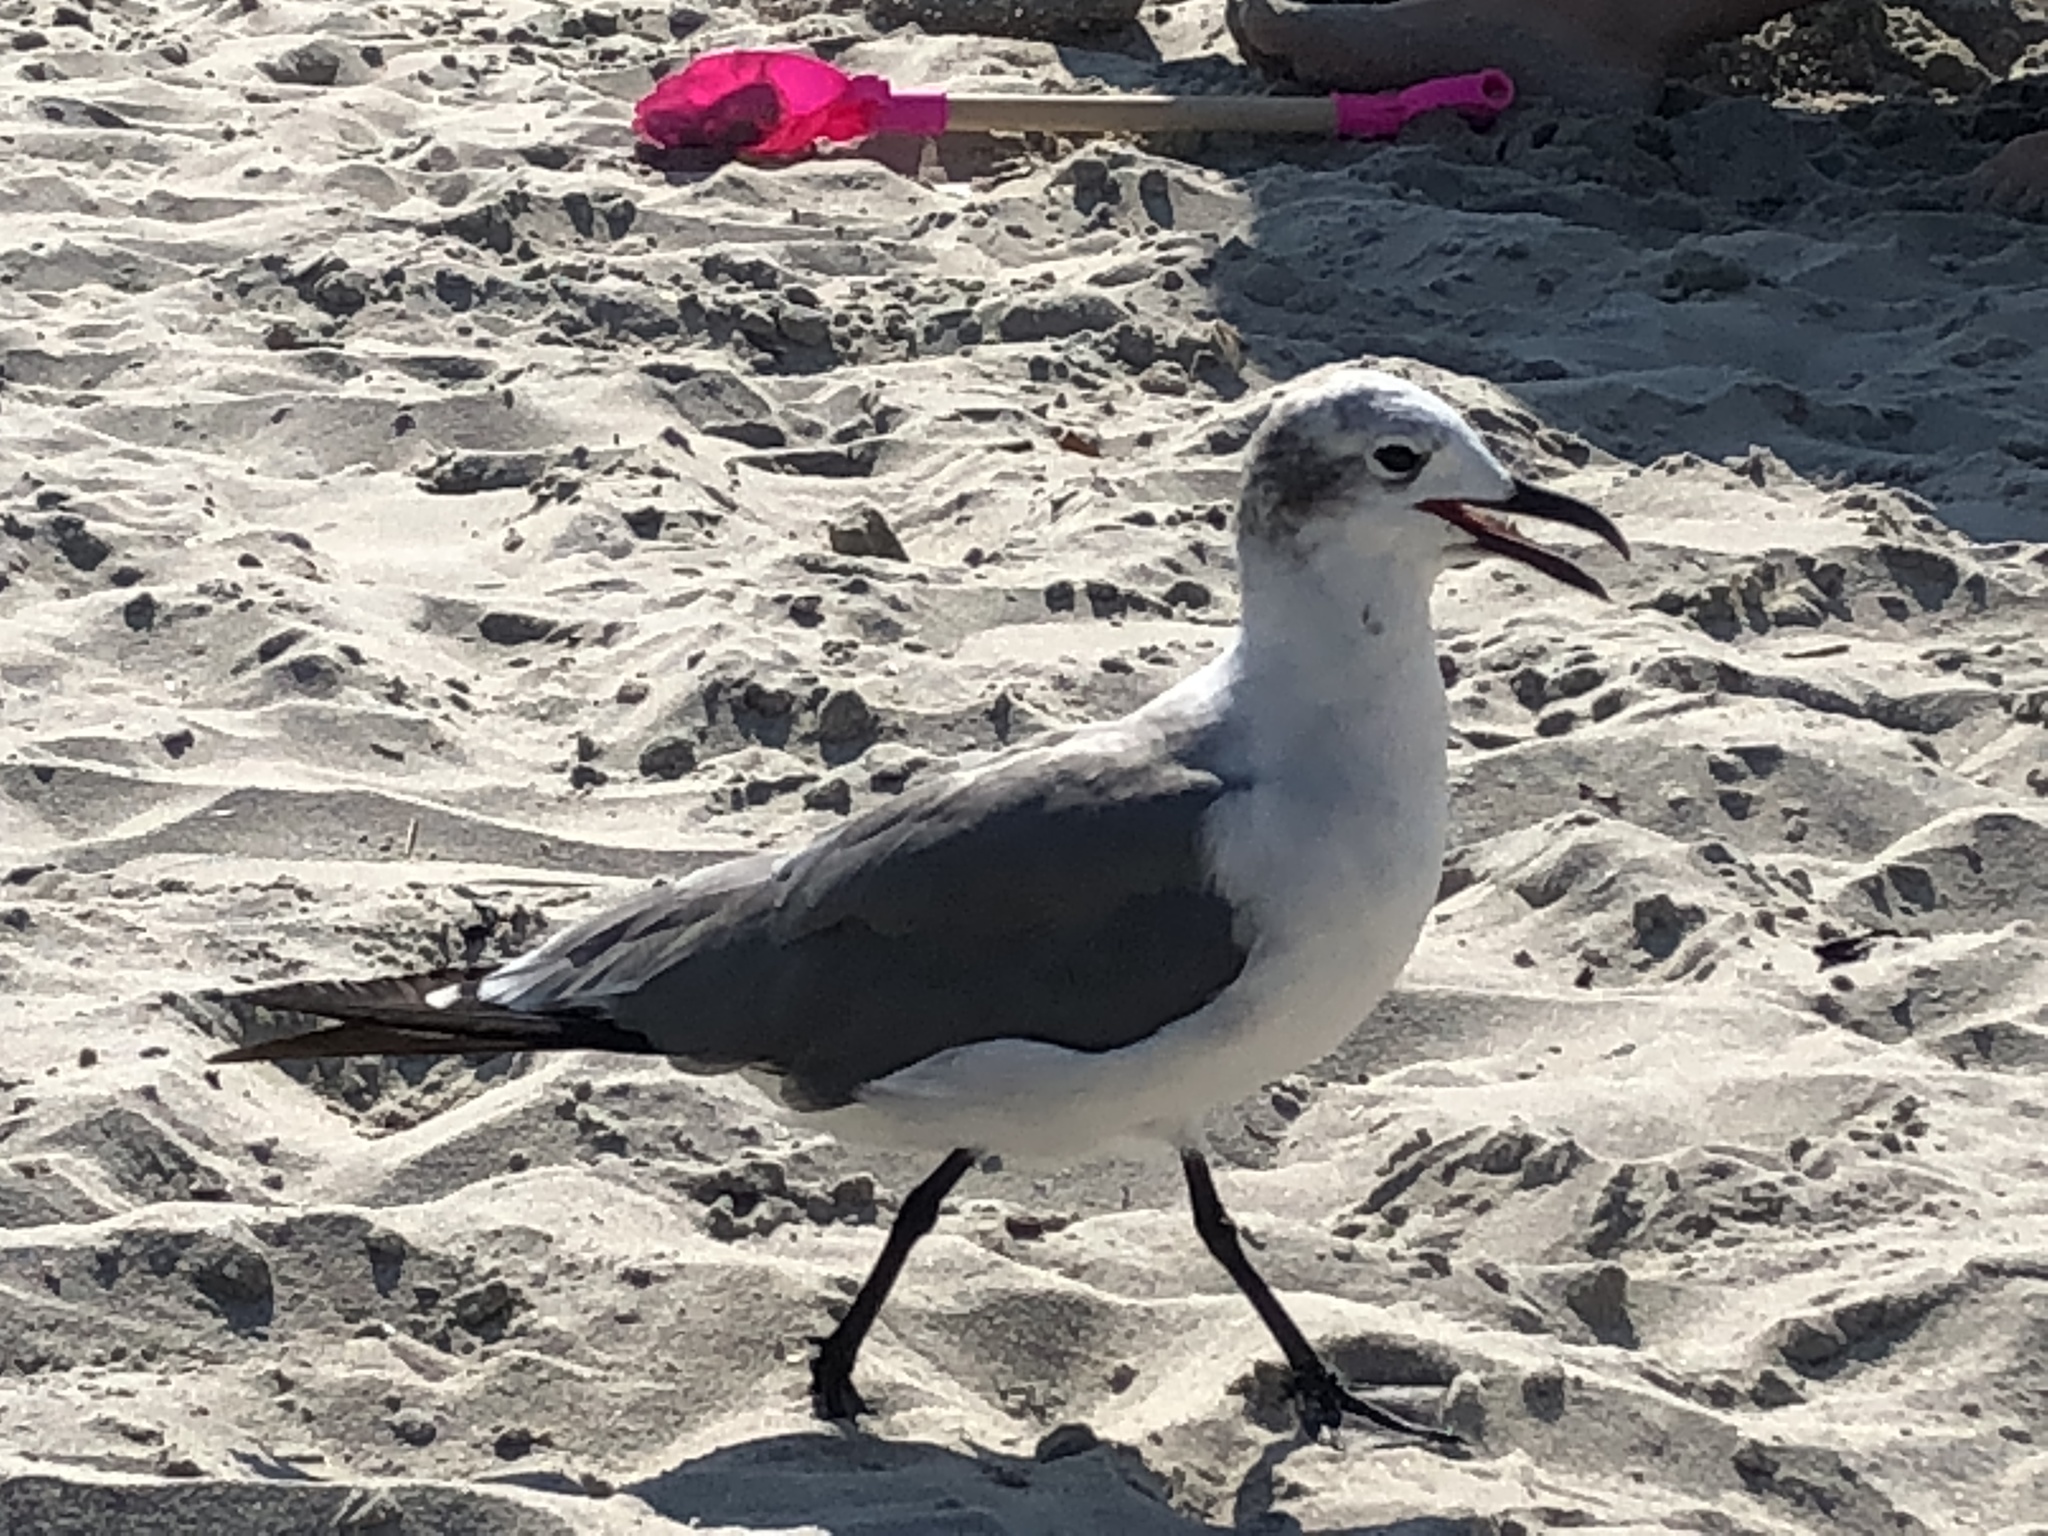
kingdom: Animalia
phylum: Chordata
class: Aves
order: Charadriiformes
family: Laridae
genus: Leucophaeus
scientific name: Leucophaeus atricilla
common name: Laughing gull
